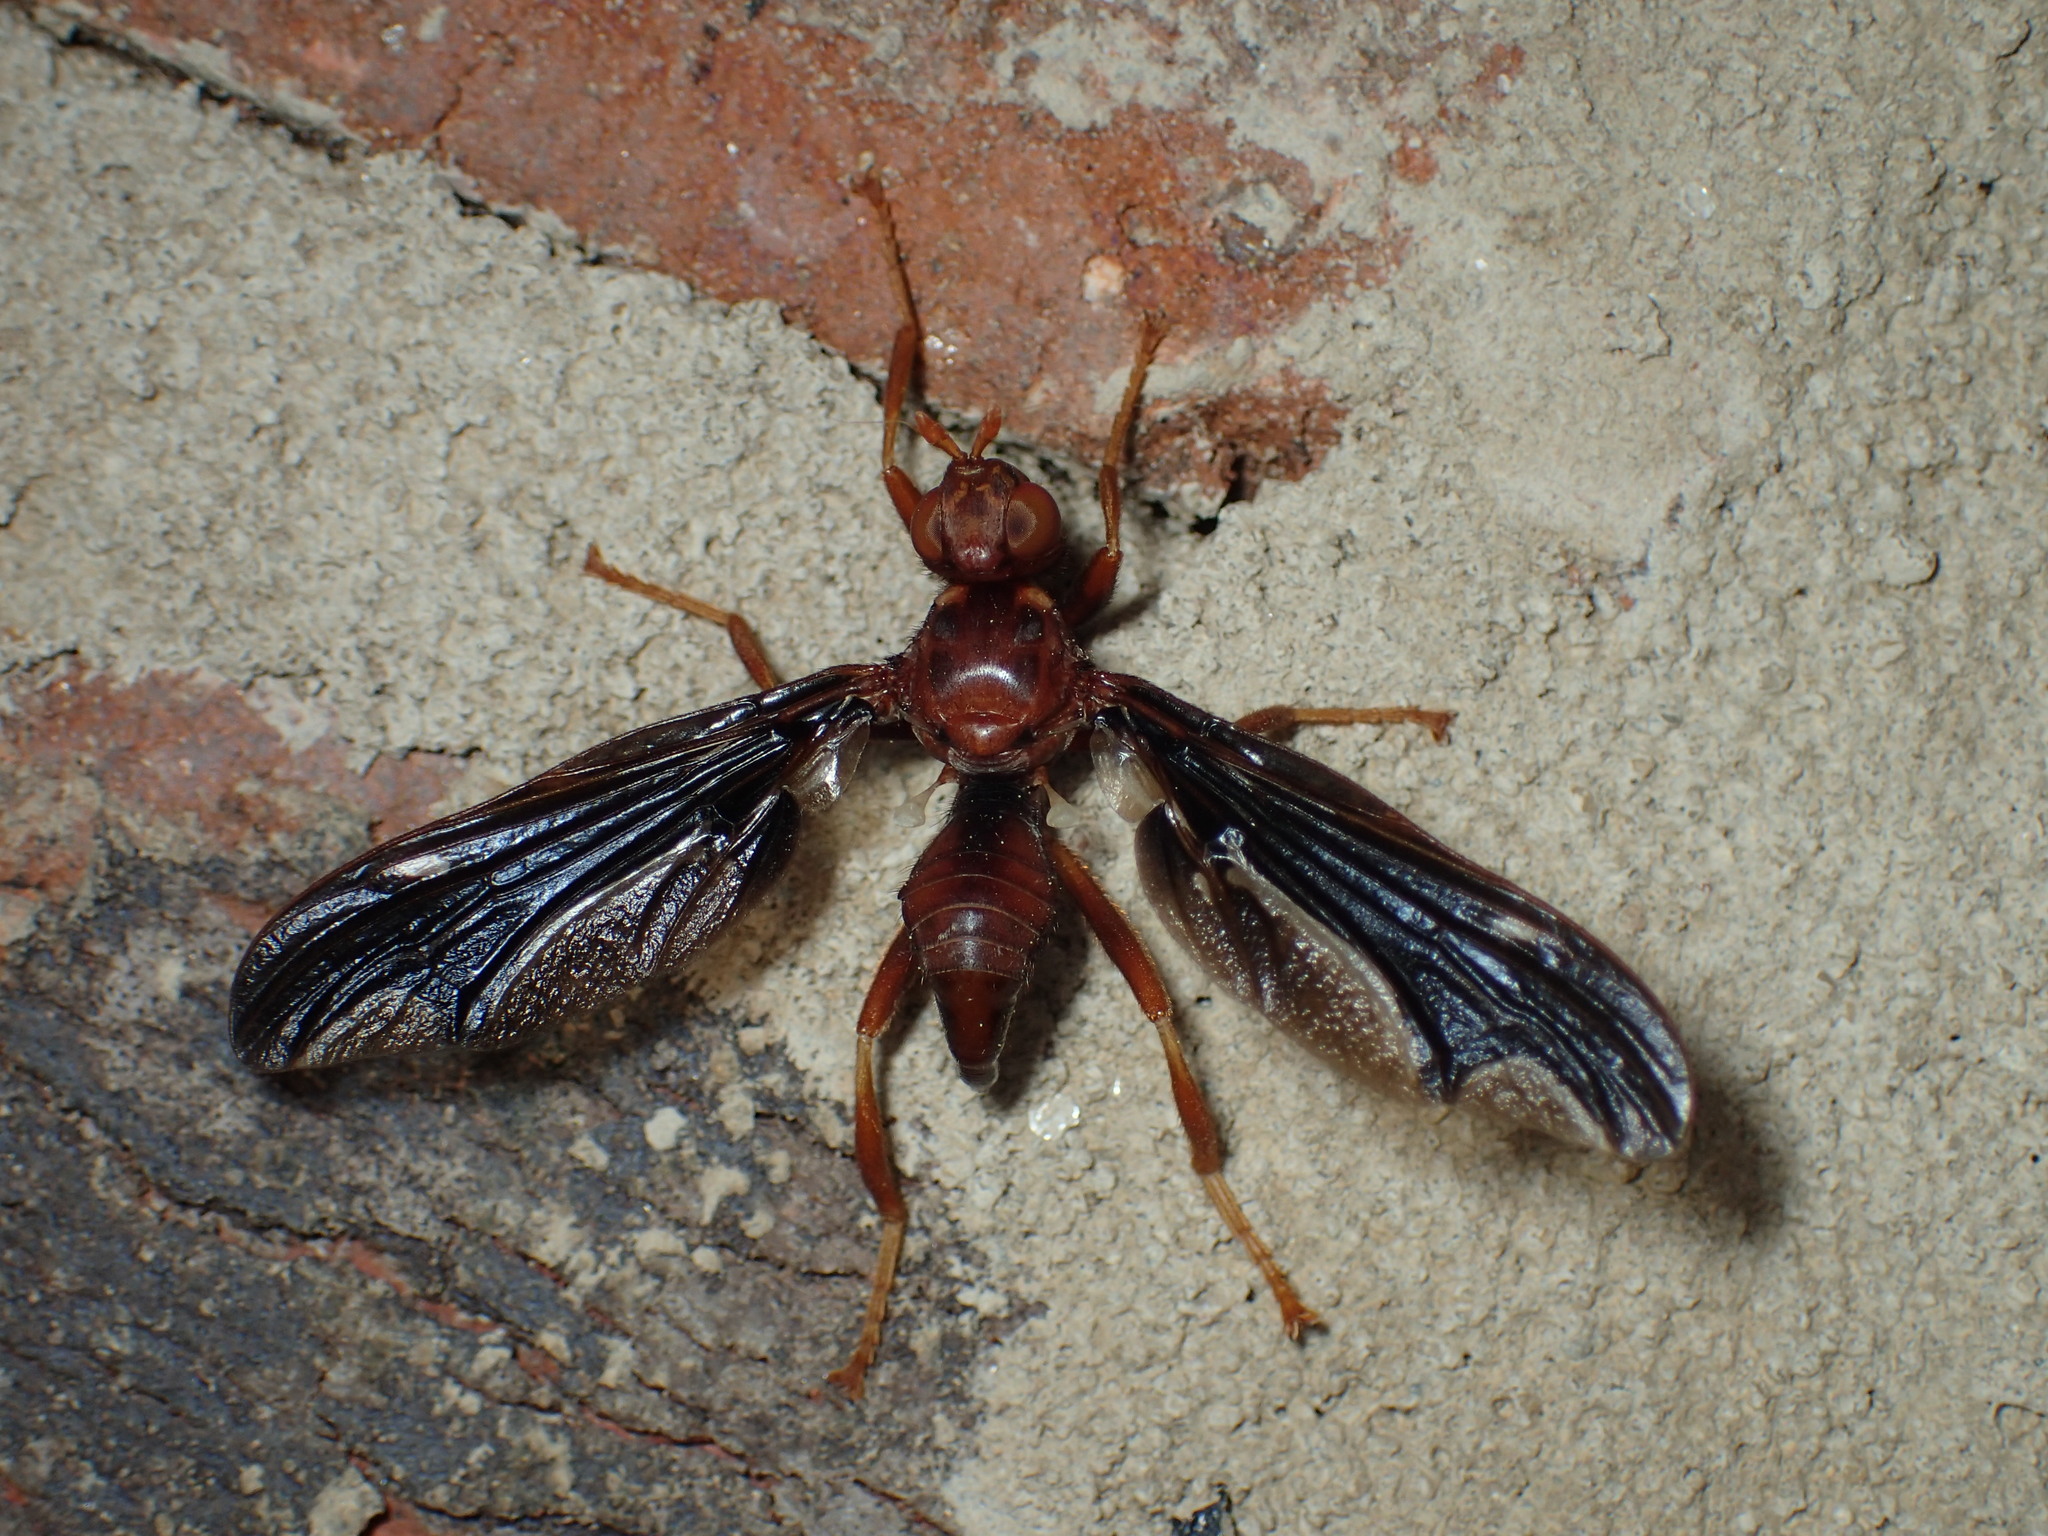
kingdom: Animalia
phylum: Arthropoda
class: Insecta
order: Diptera
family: Pyrgotidae
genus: Pyrgota
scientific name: Pyrgota undata
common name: Waved light fly
